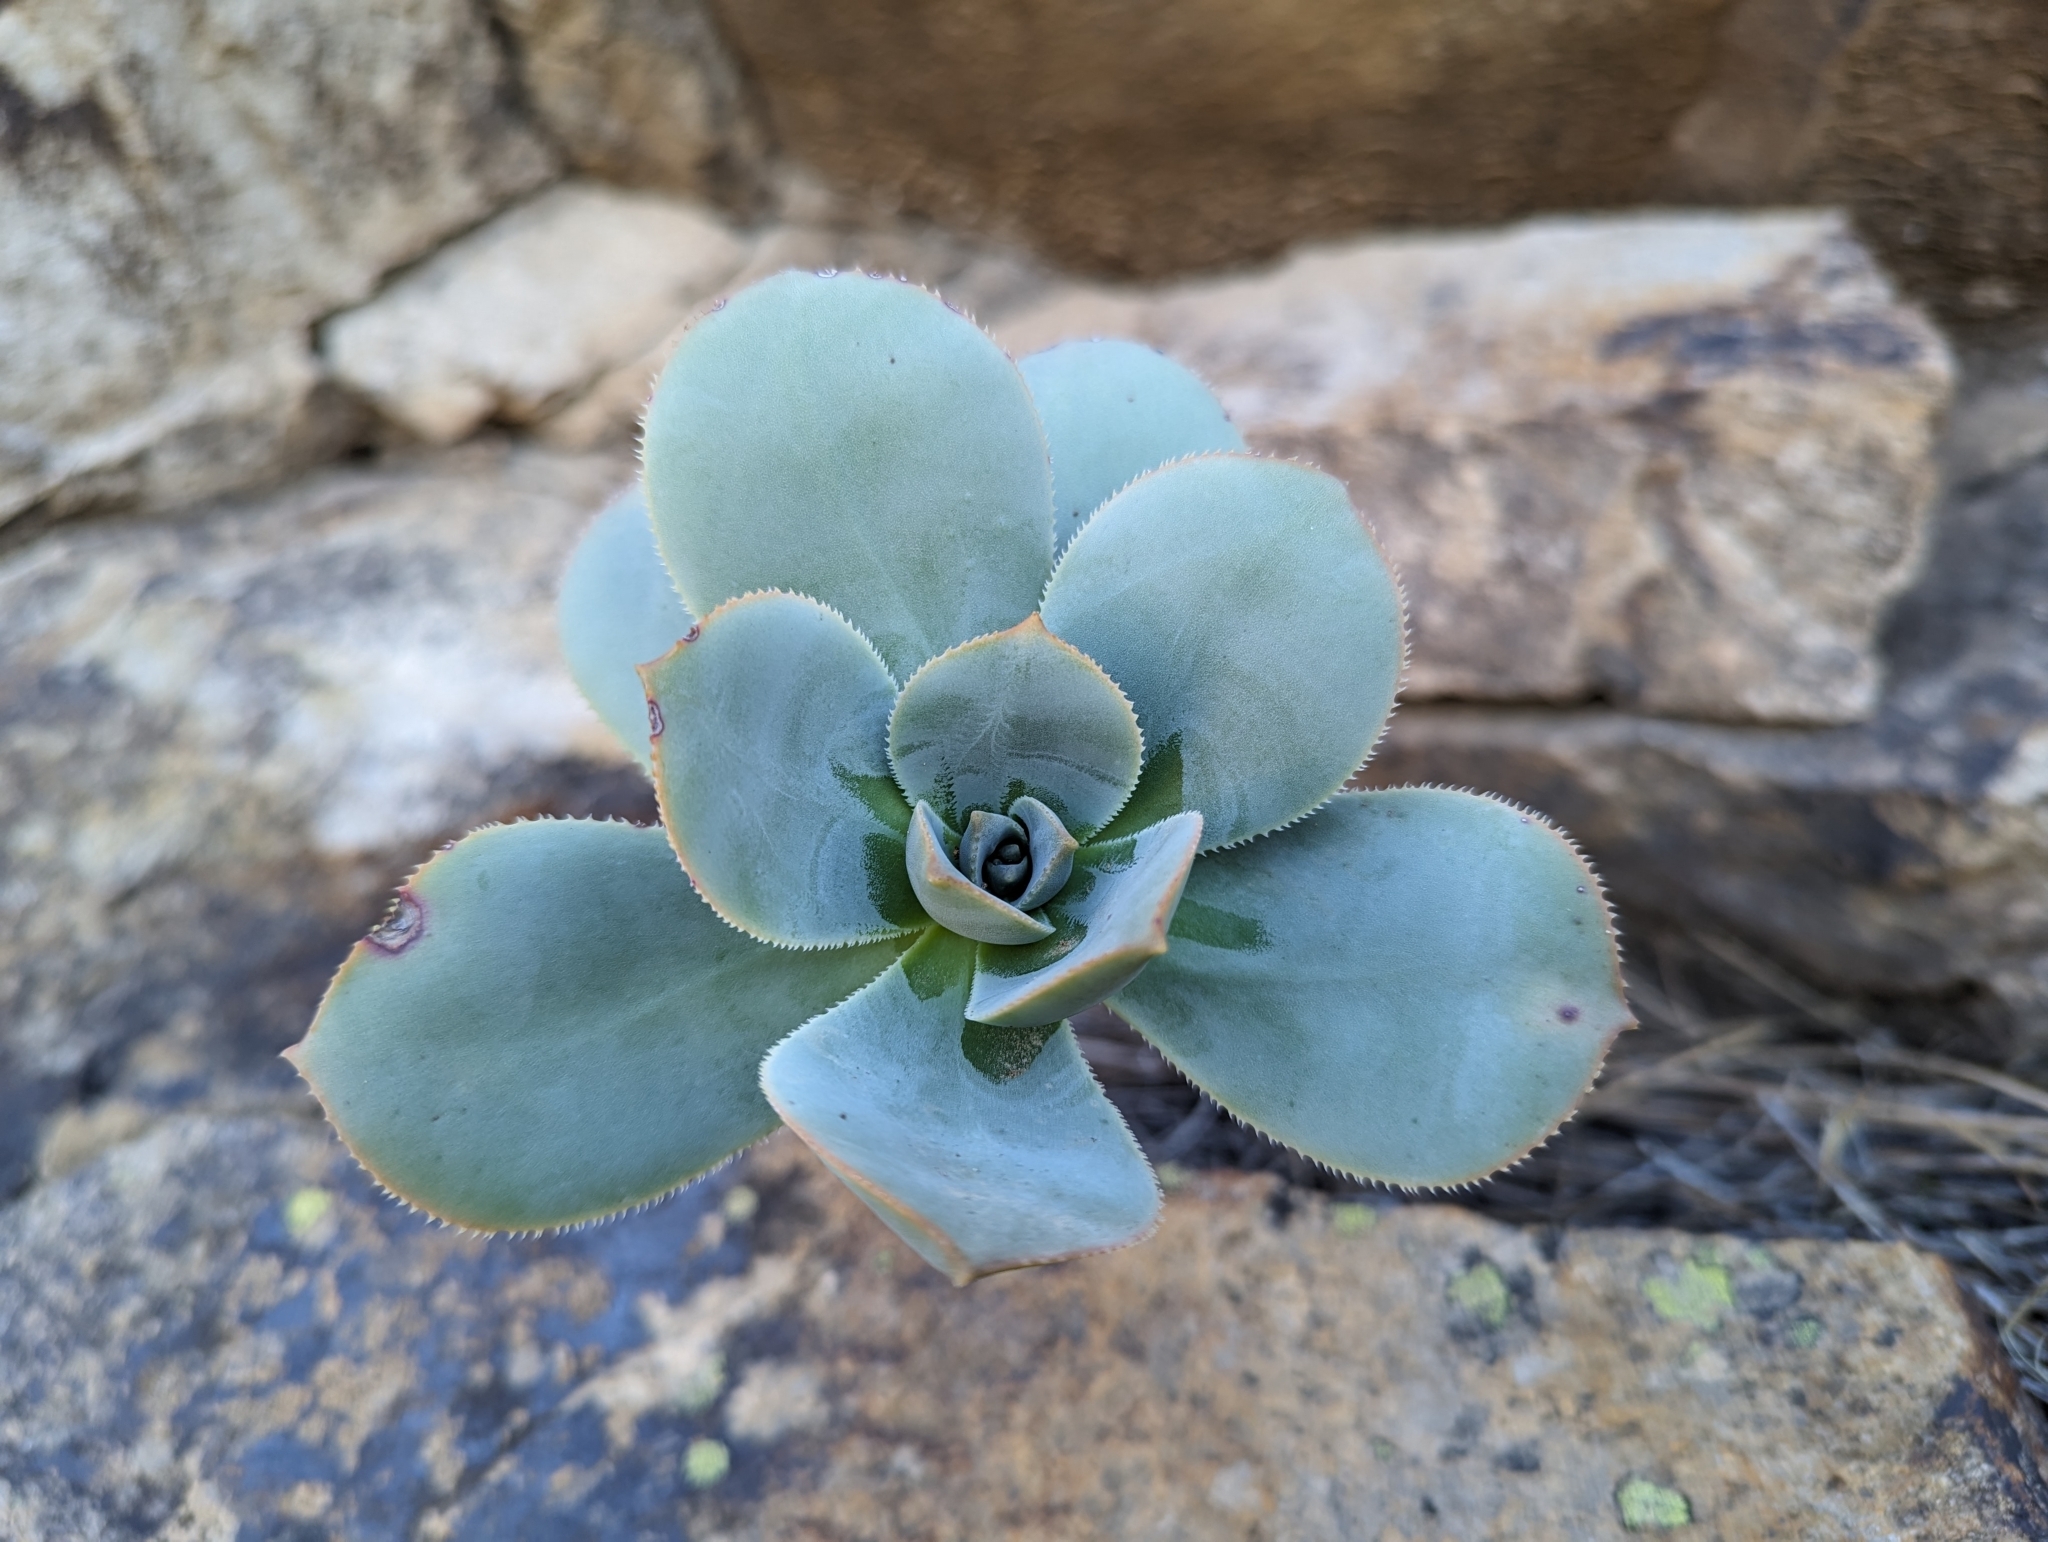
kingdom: Plantae
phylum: Tracheophyta
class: Magnoliopsida
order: Saxifragales
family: Crassulaceae
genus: Aeonium
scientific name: Aeonium percarneum
